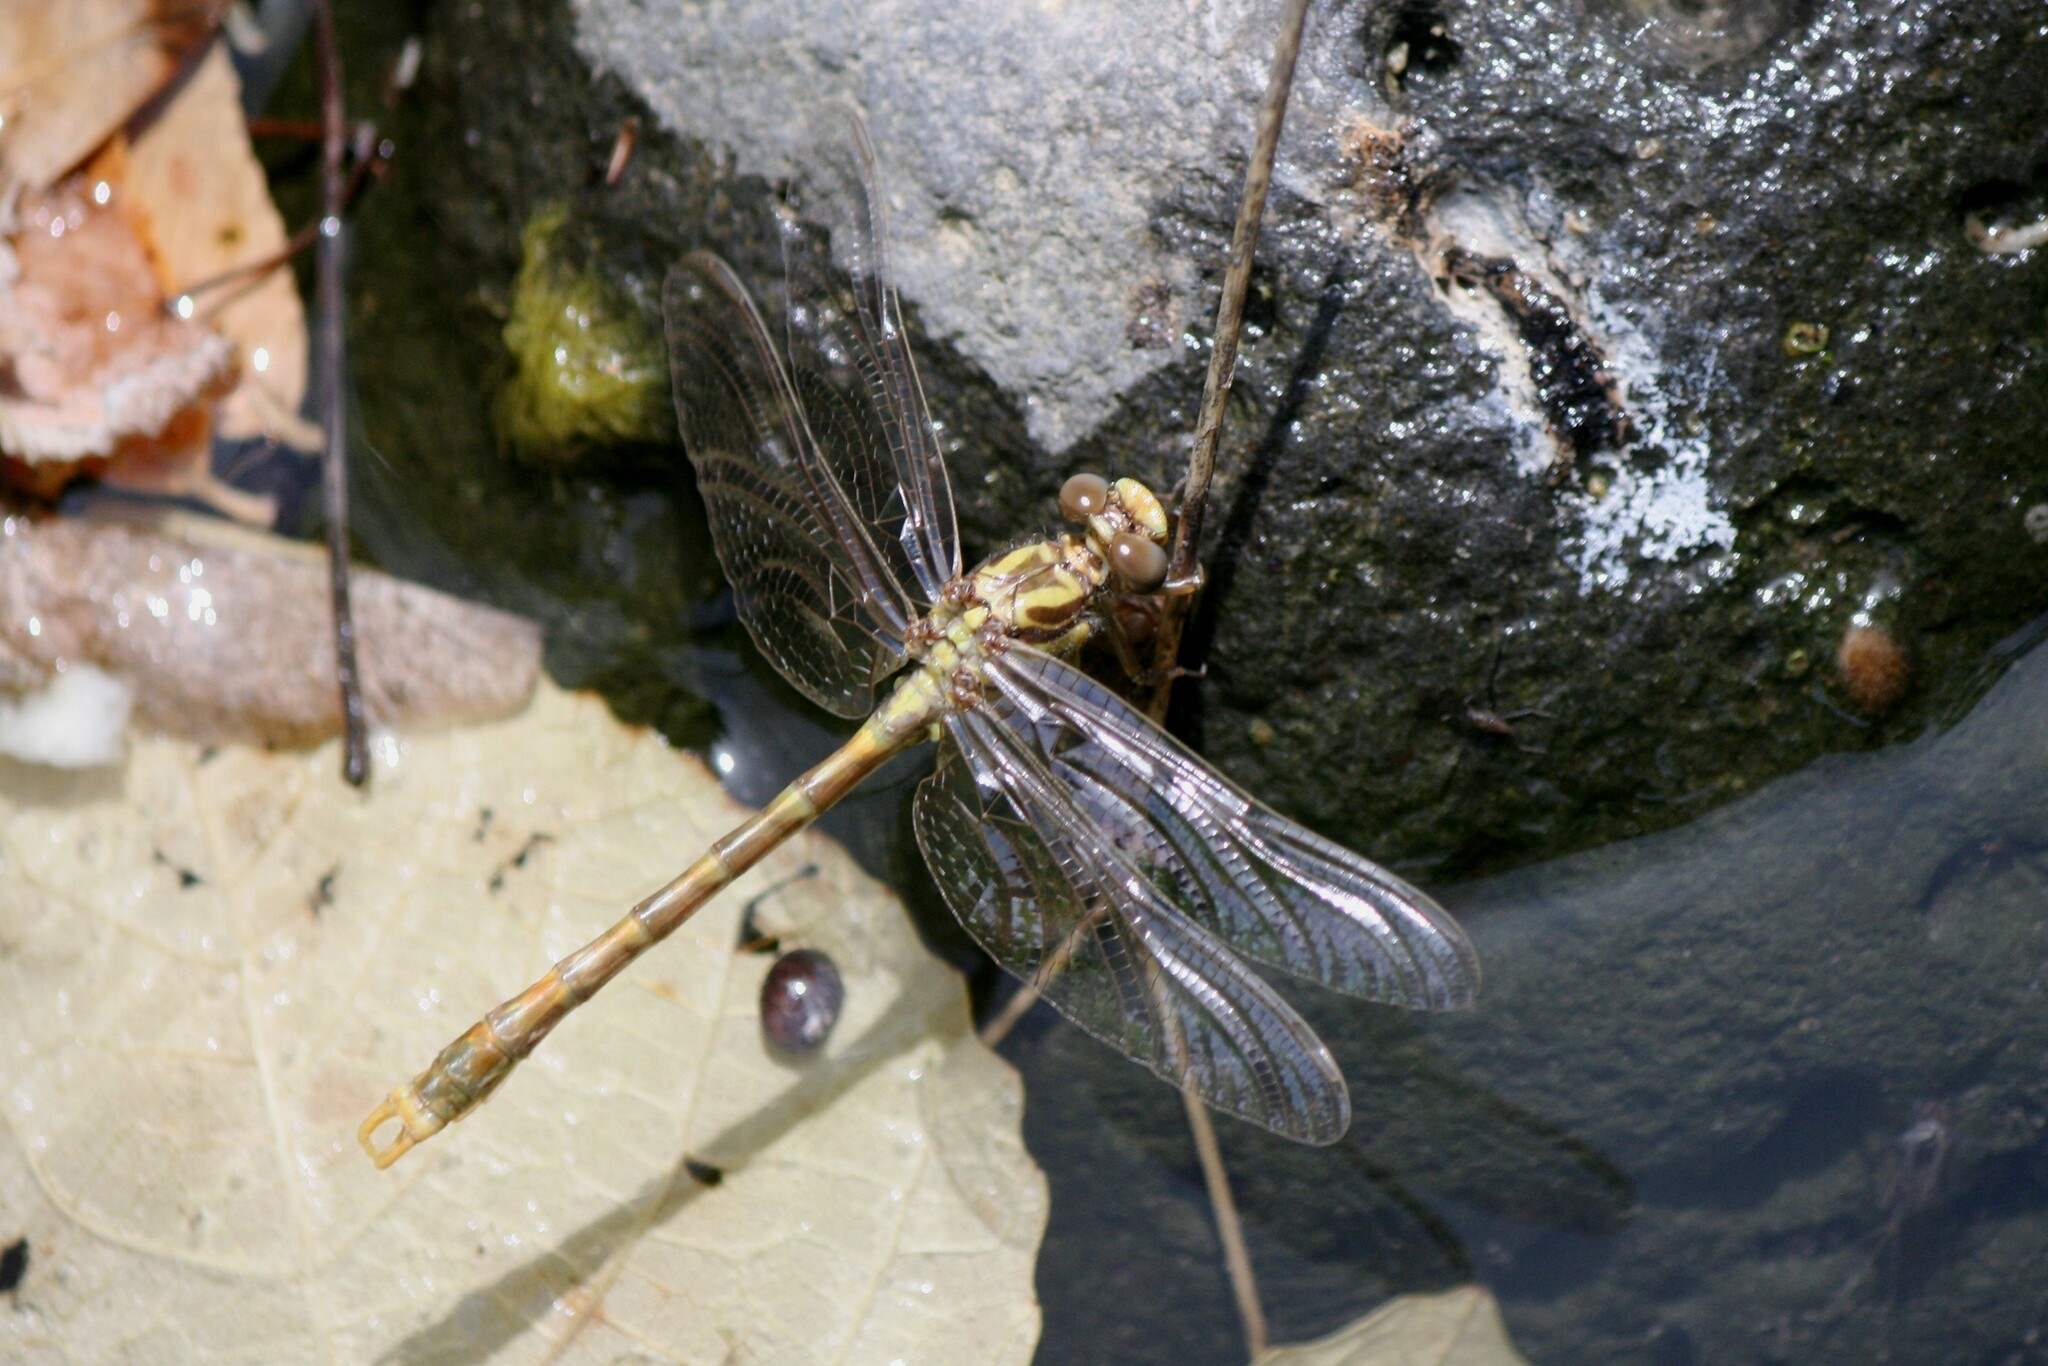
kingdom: Animalia
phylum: Arthropoda
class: Insecta
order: Odonata
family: Gomphidae
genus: Onychogomphus
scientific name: Onychogomphus uncatus
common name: Large pincertail
